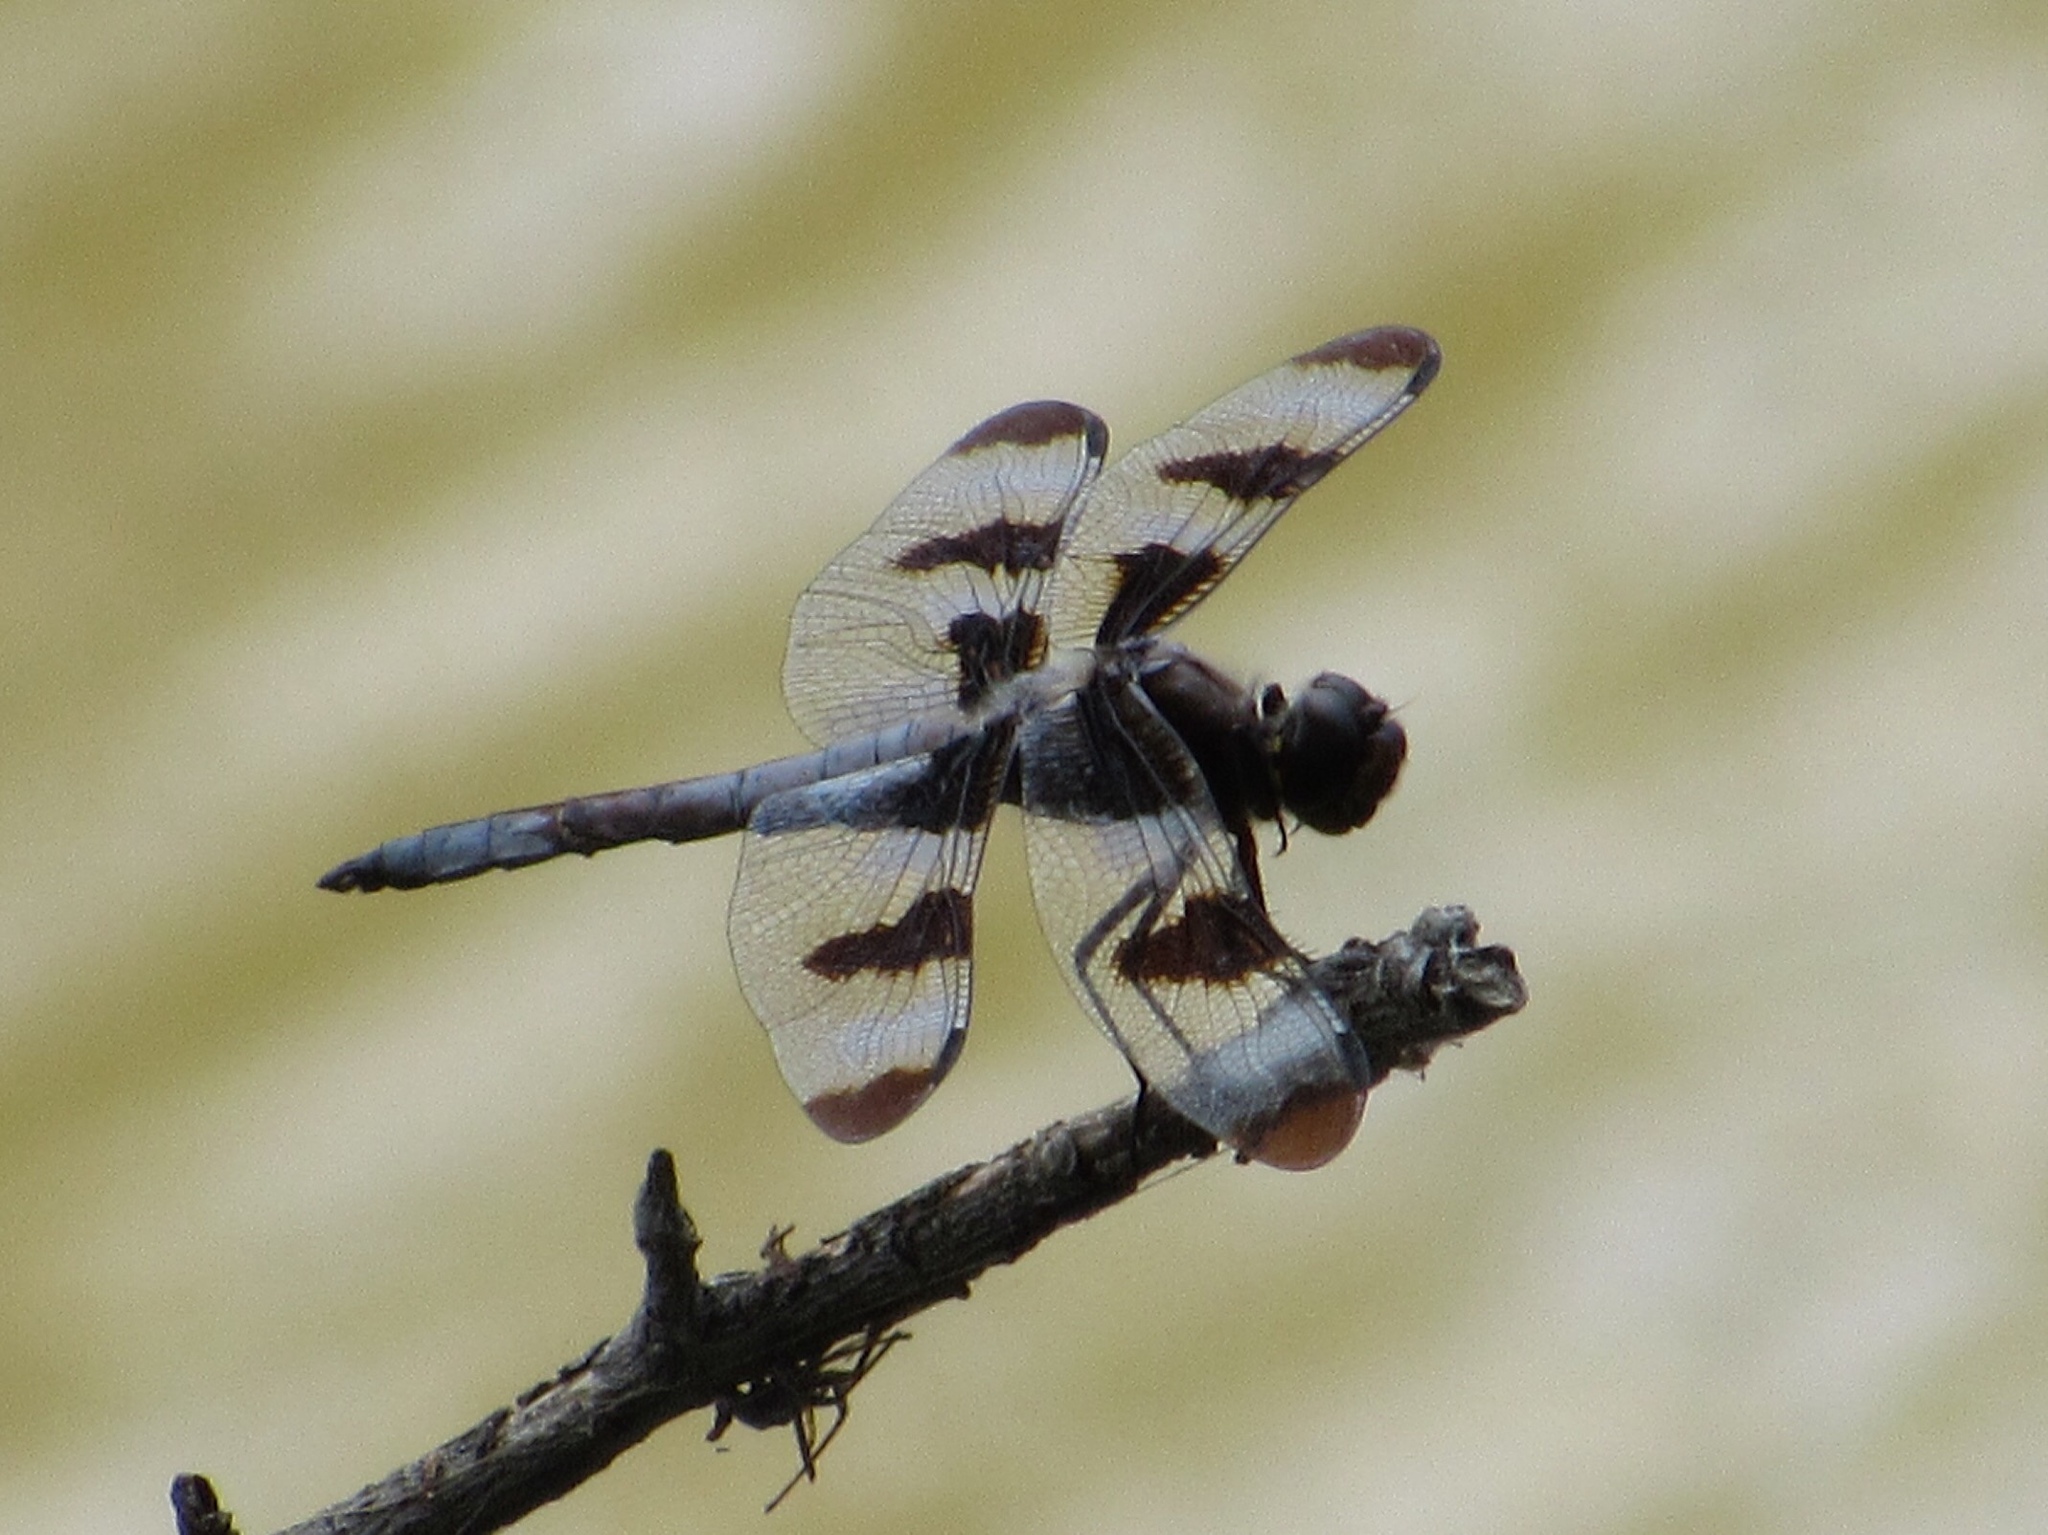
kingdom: Animalia
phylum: Arthropoda
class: Insecta
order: Odonata
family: Libellulidae
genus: Libellula
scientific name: Libellula pulchella
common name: Twelve-spotted skimmer
